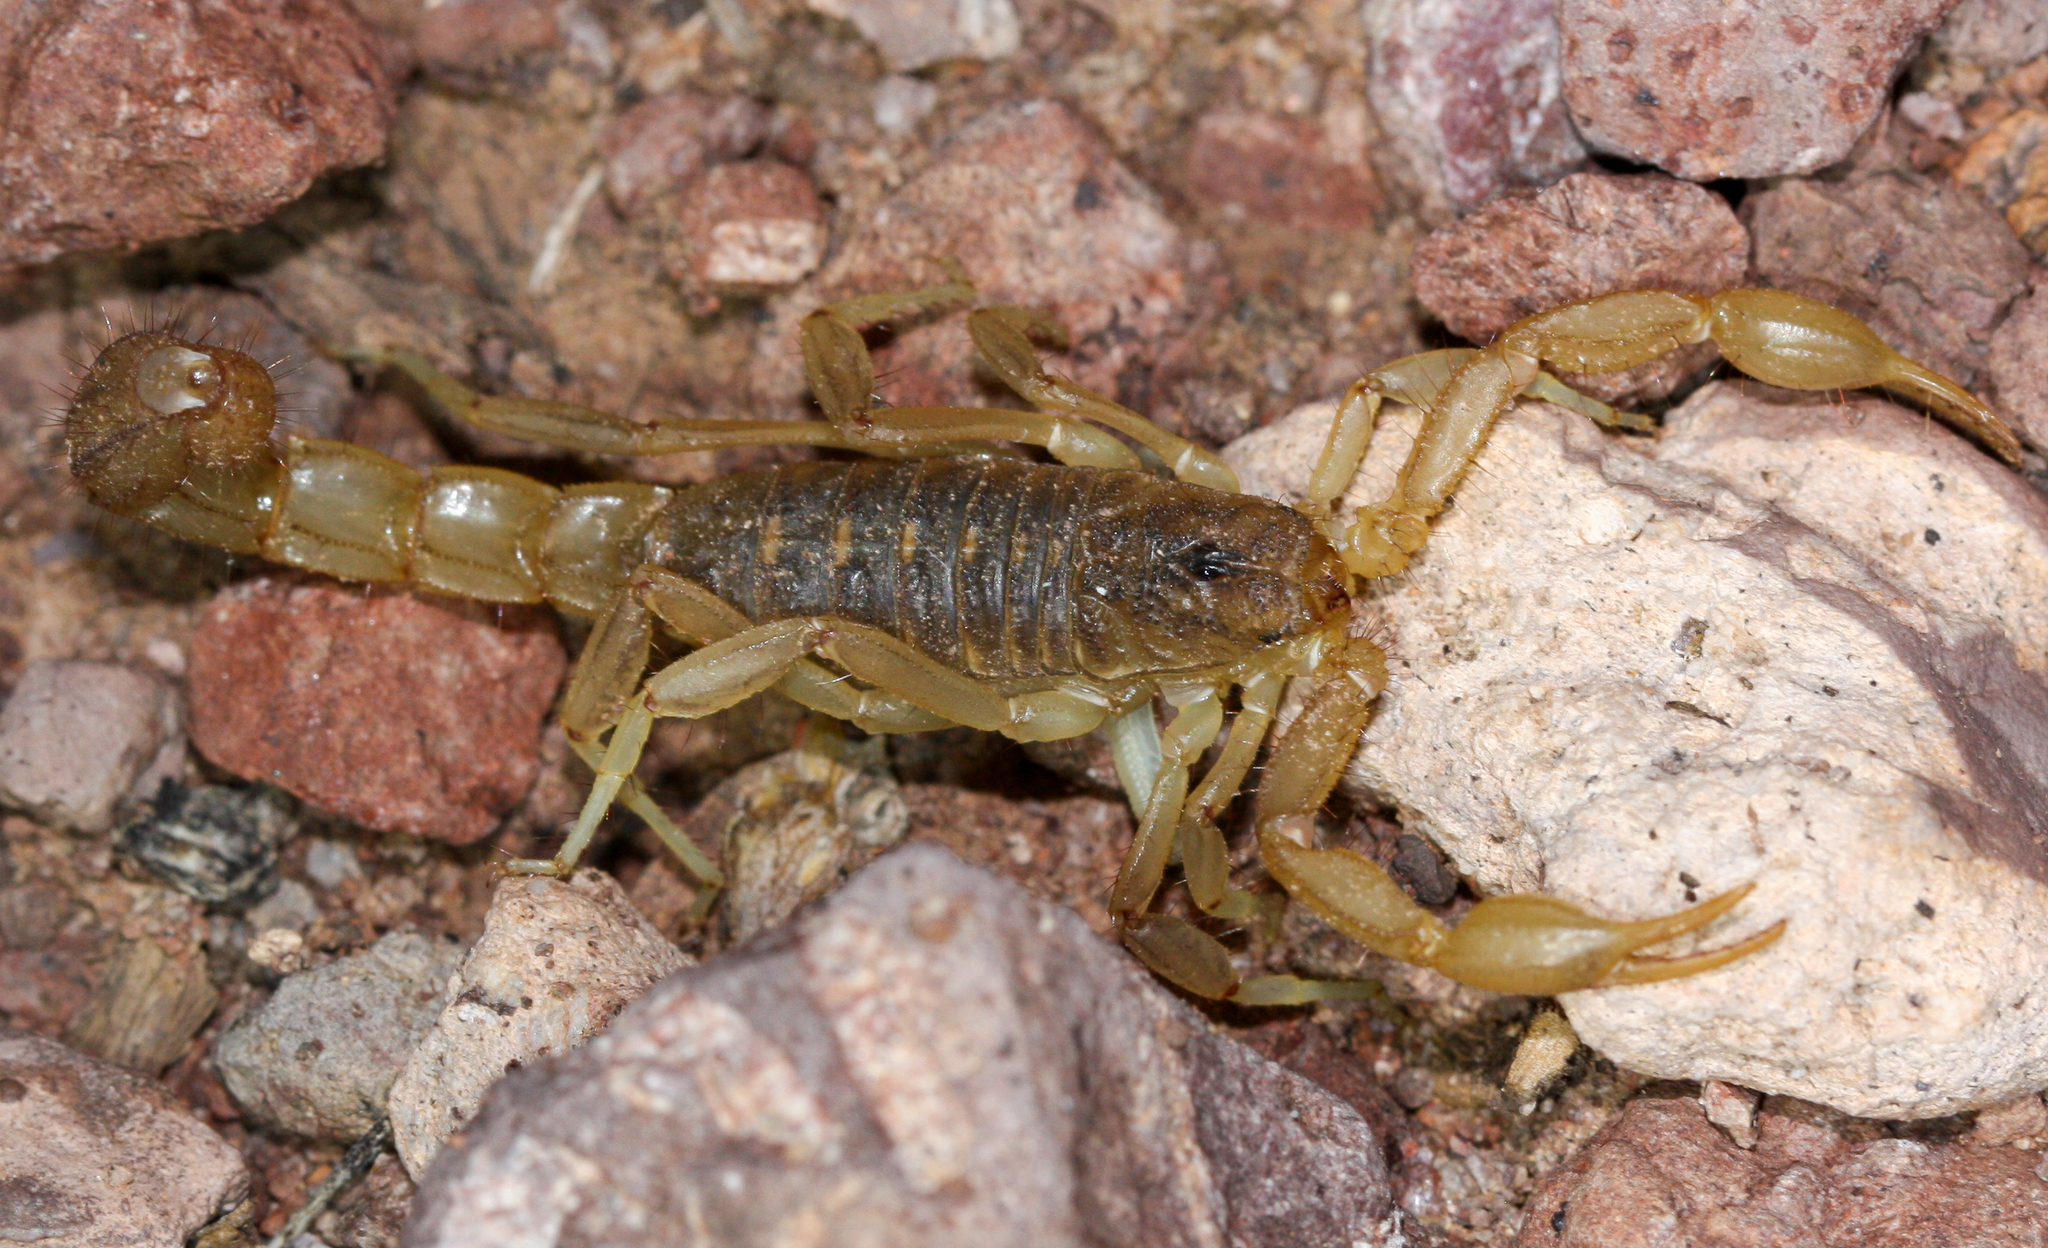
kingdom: Animalia
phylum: Arthropoda
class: Arachnida
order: Scorpiones
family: Vaejovidae
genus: Paravaejovis
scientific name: Paravaejovis spinigerus
